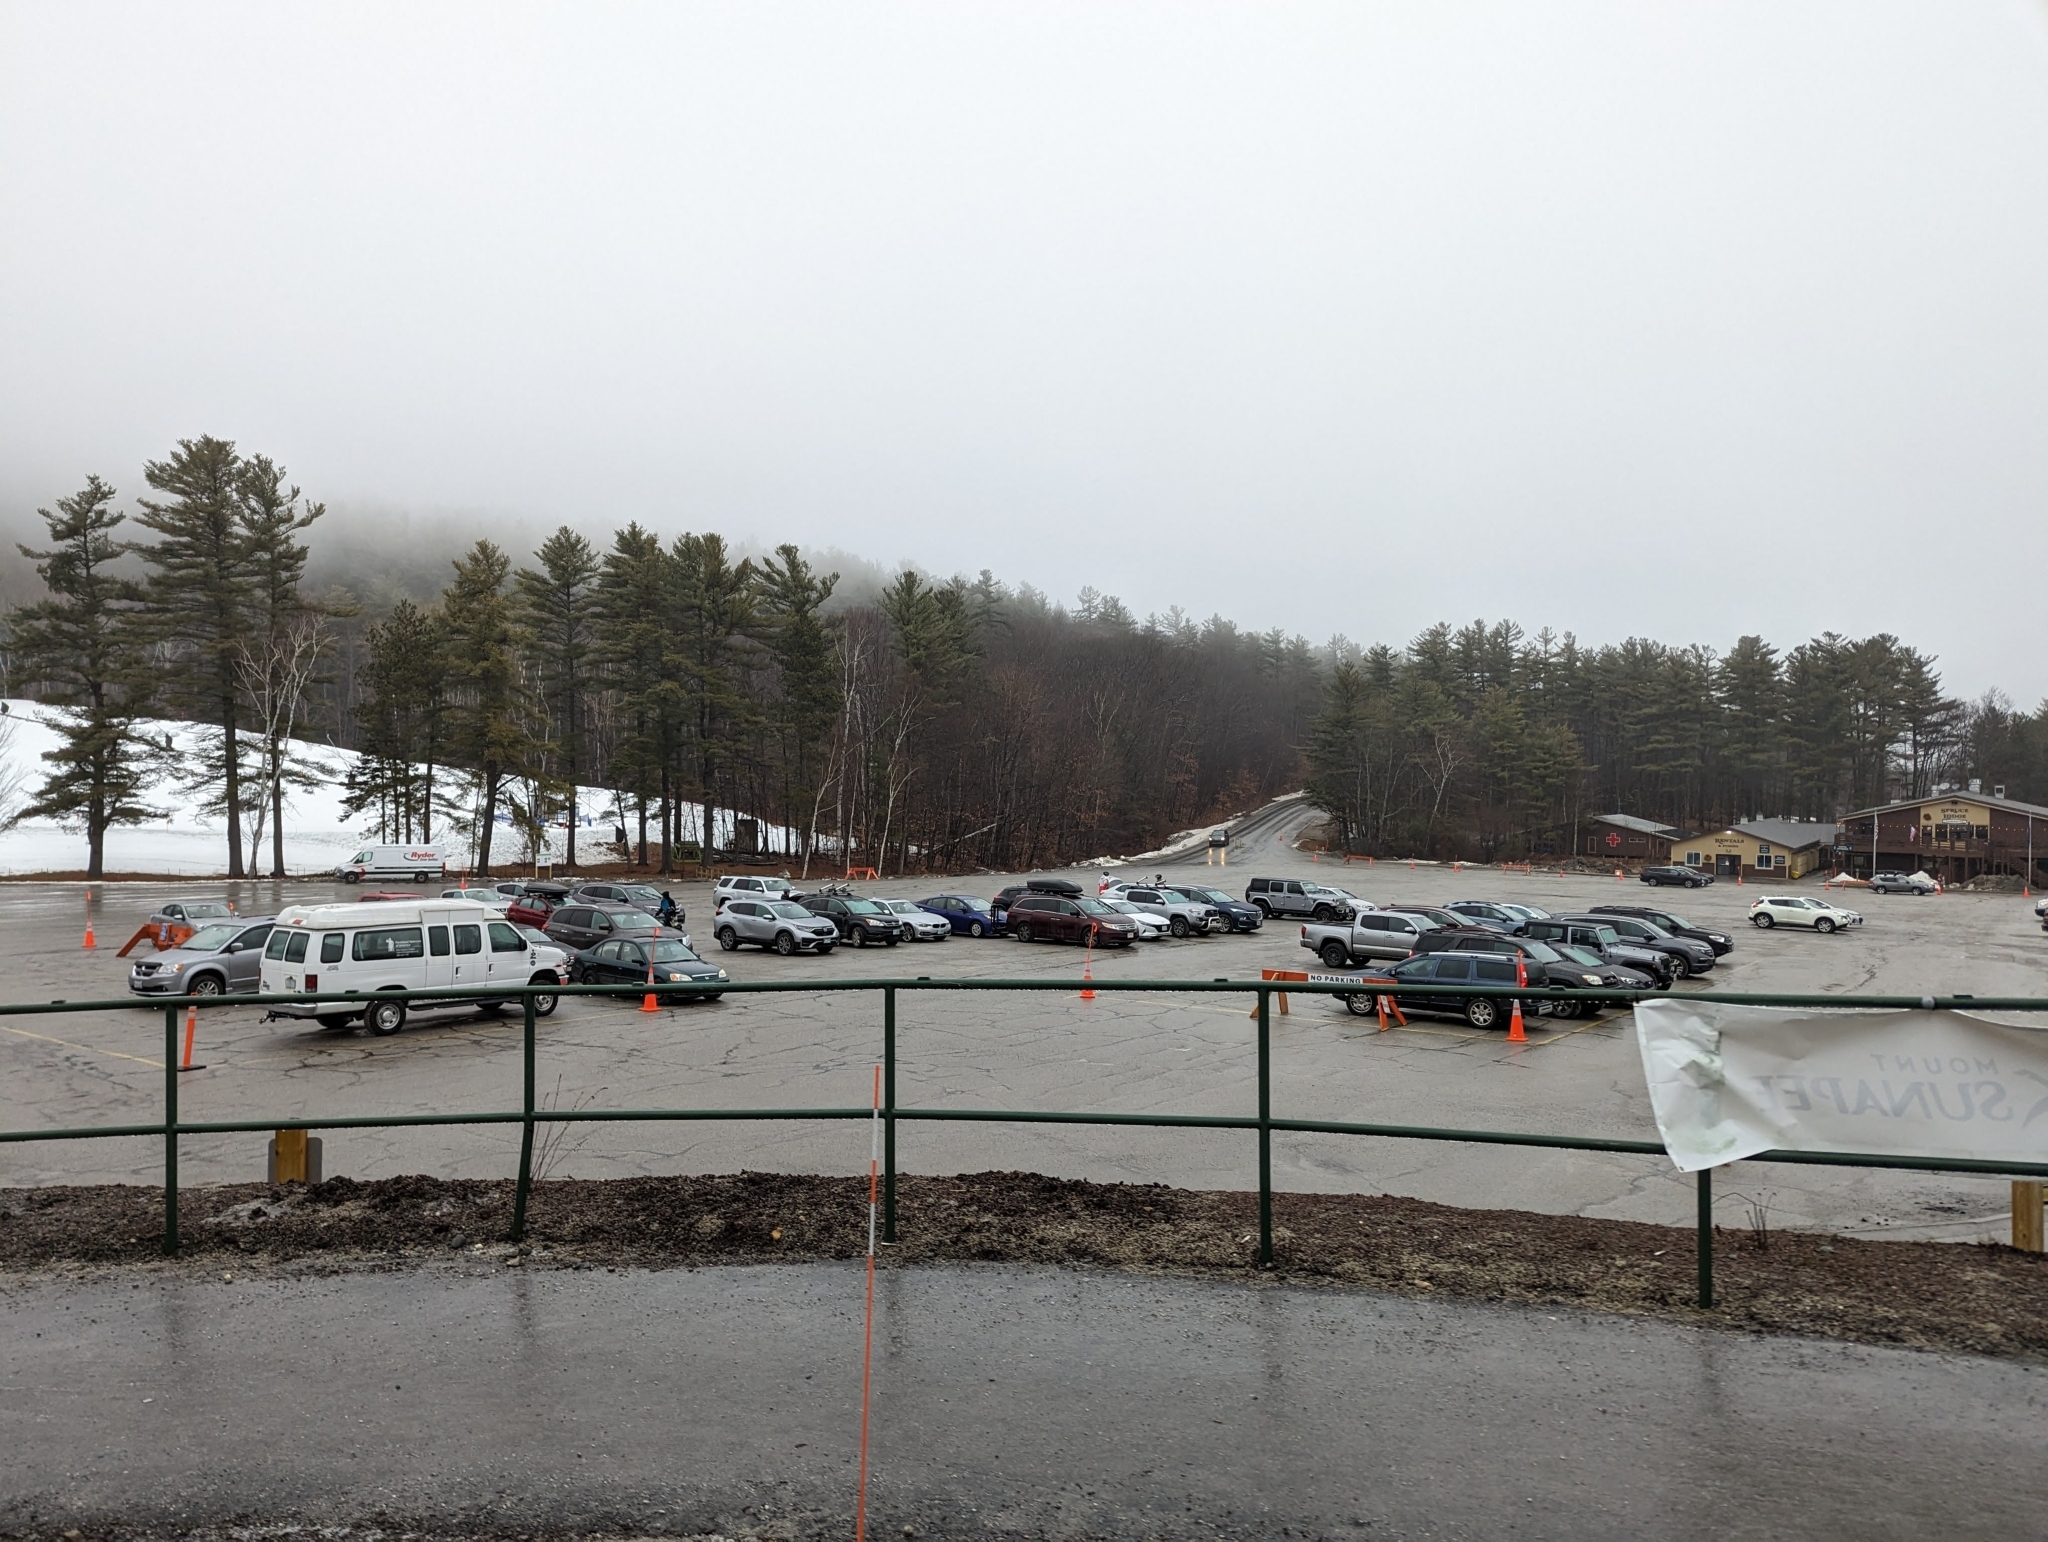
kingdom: Plantae
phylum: Tracheophyta
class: Pinopsida
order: Pinales
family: Pinaceae
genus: Pinus
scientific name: Pinus strobus
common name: Weymouth pine
